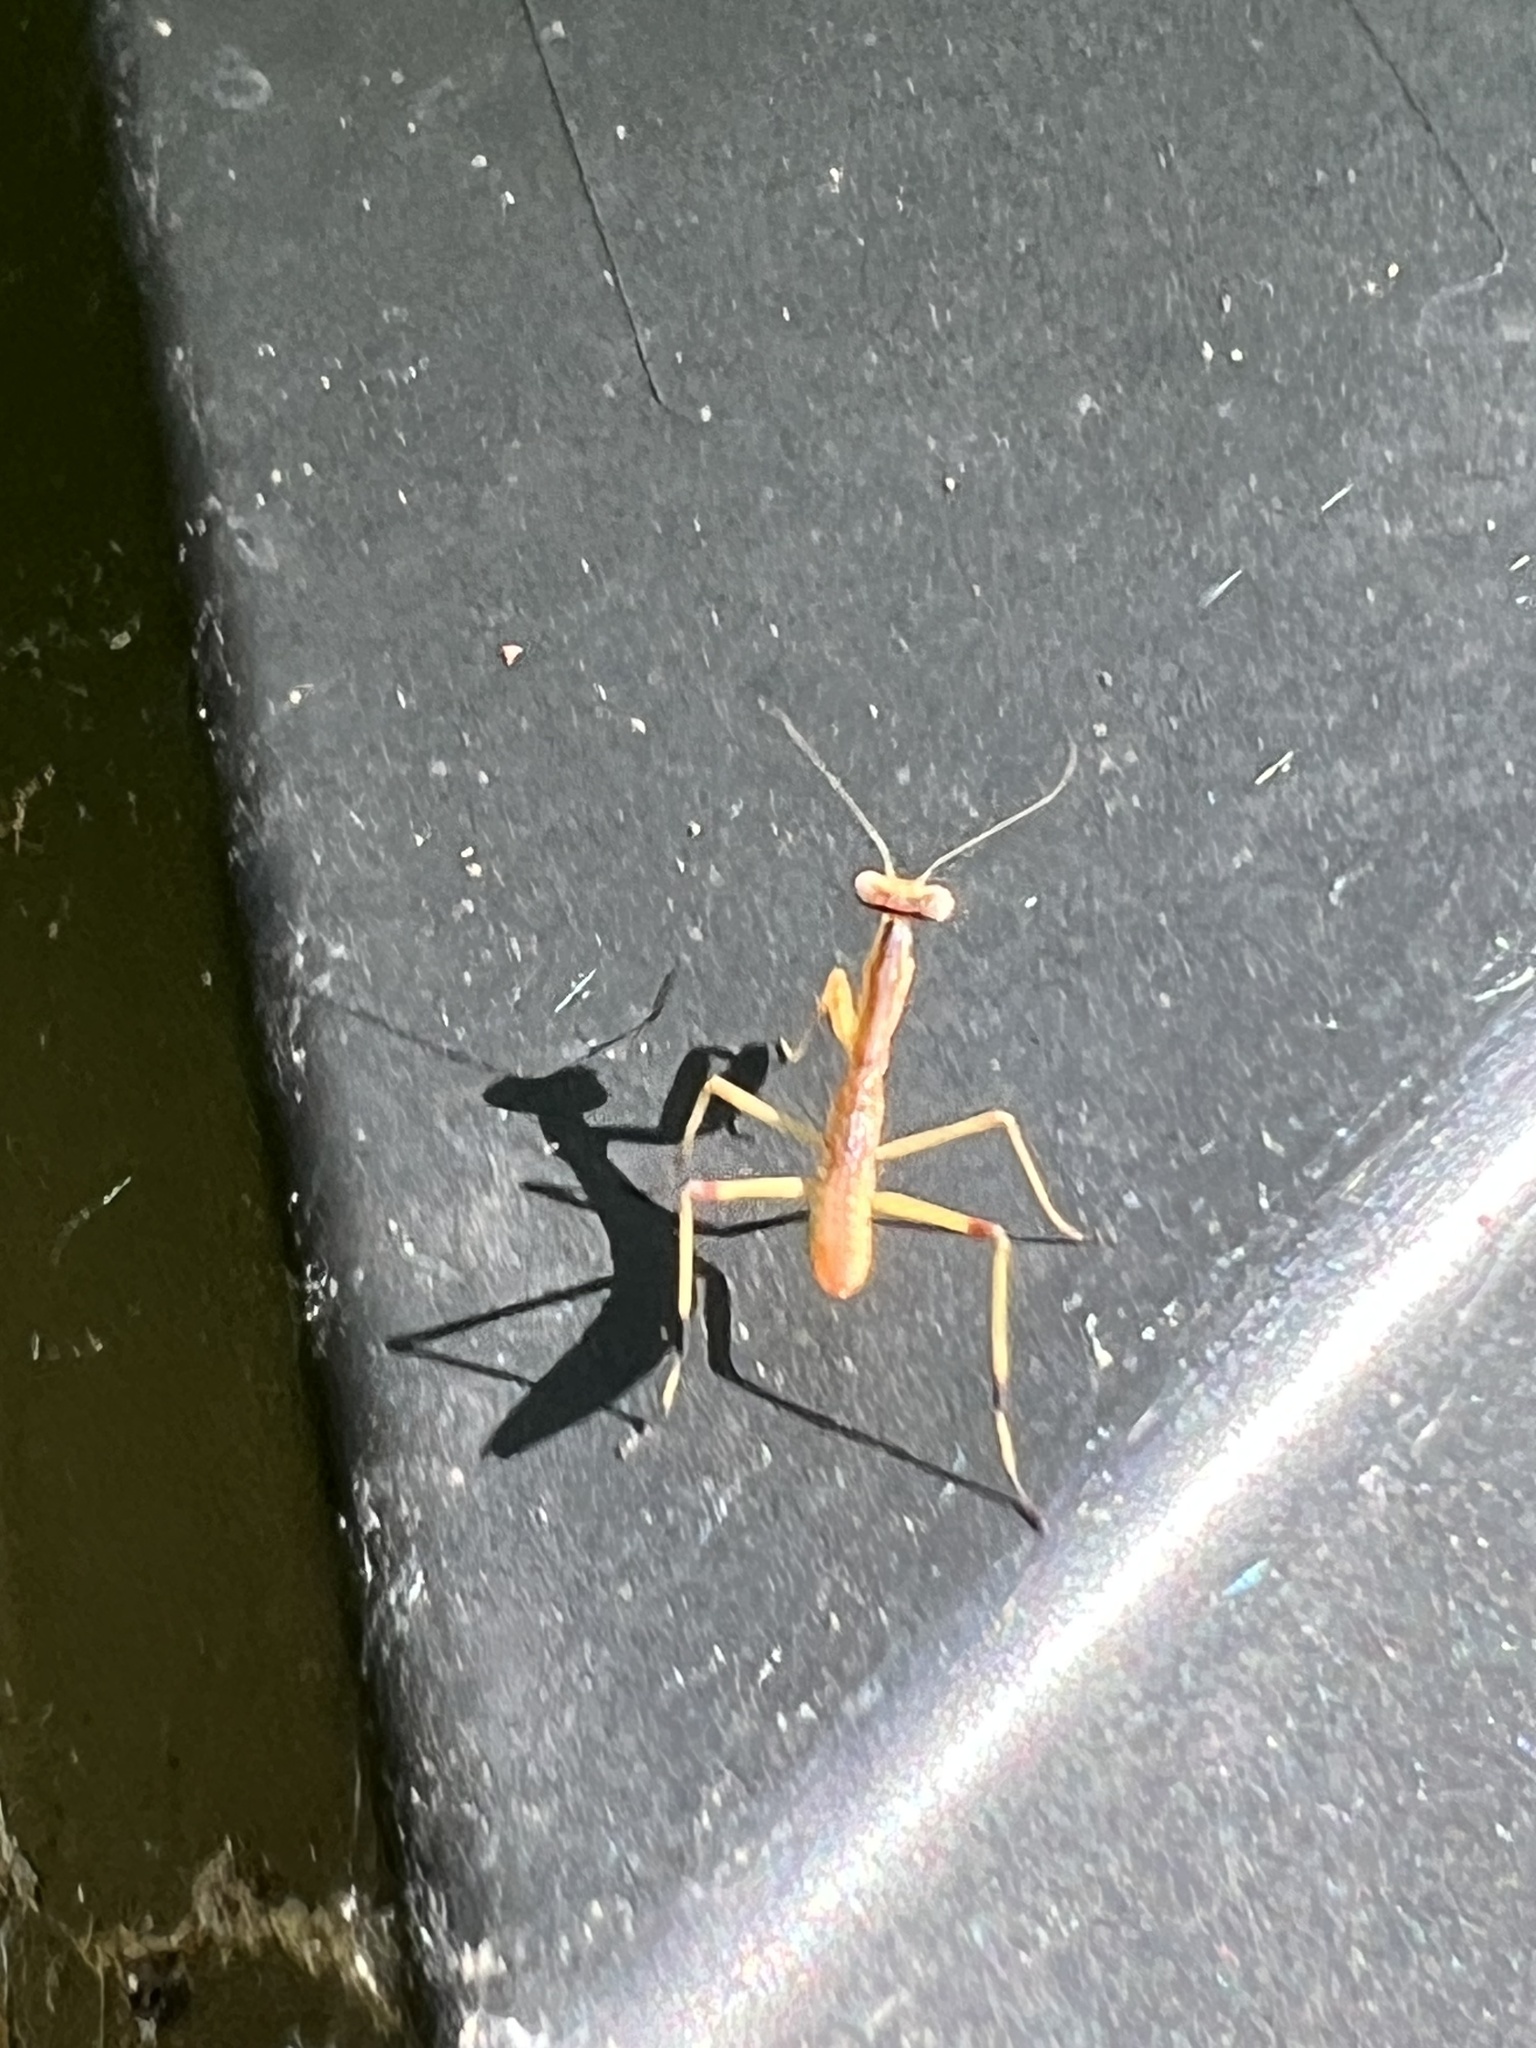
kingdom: Animalia
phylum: Arthropoda
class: Insecta
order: Mantodea
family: Mantidae
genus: Stagmomantis
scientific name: Stagmomantis carolina
